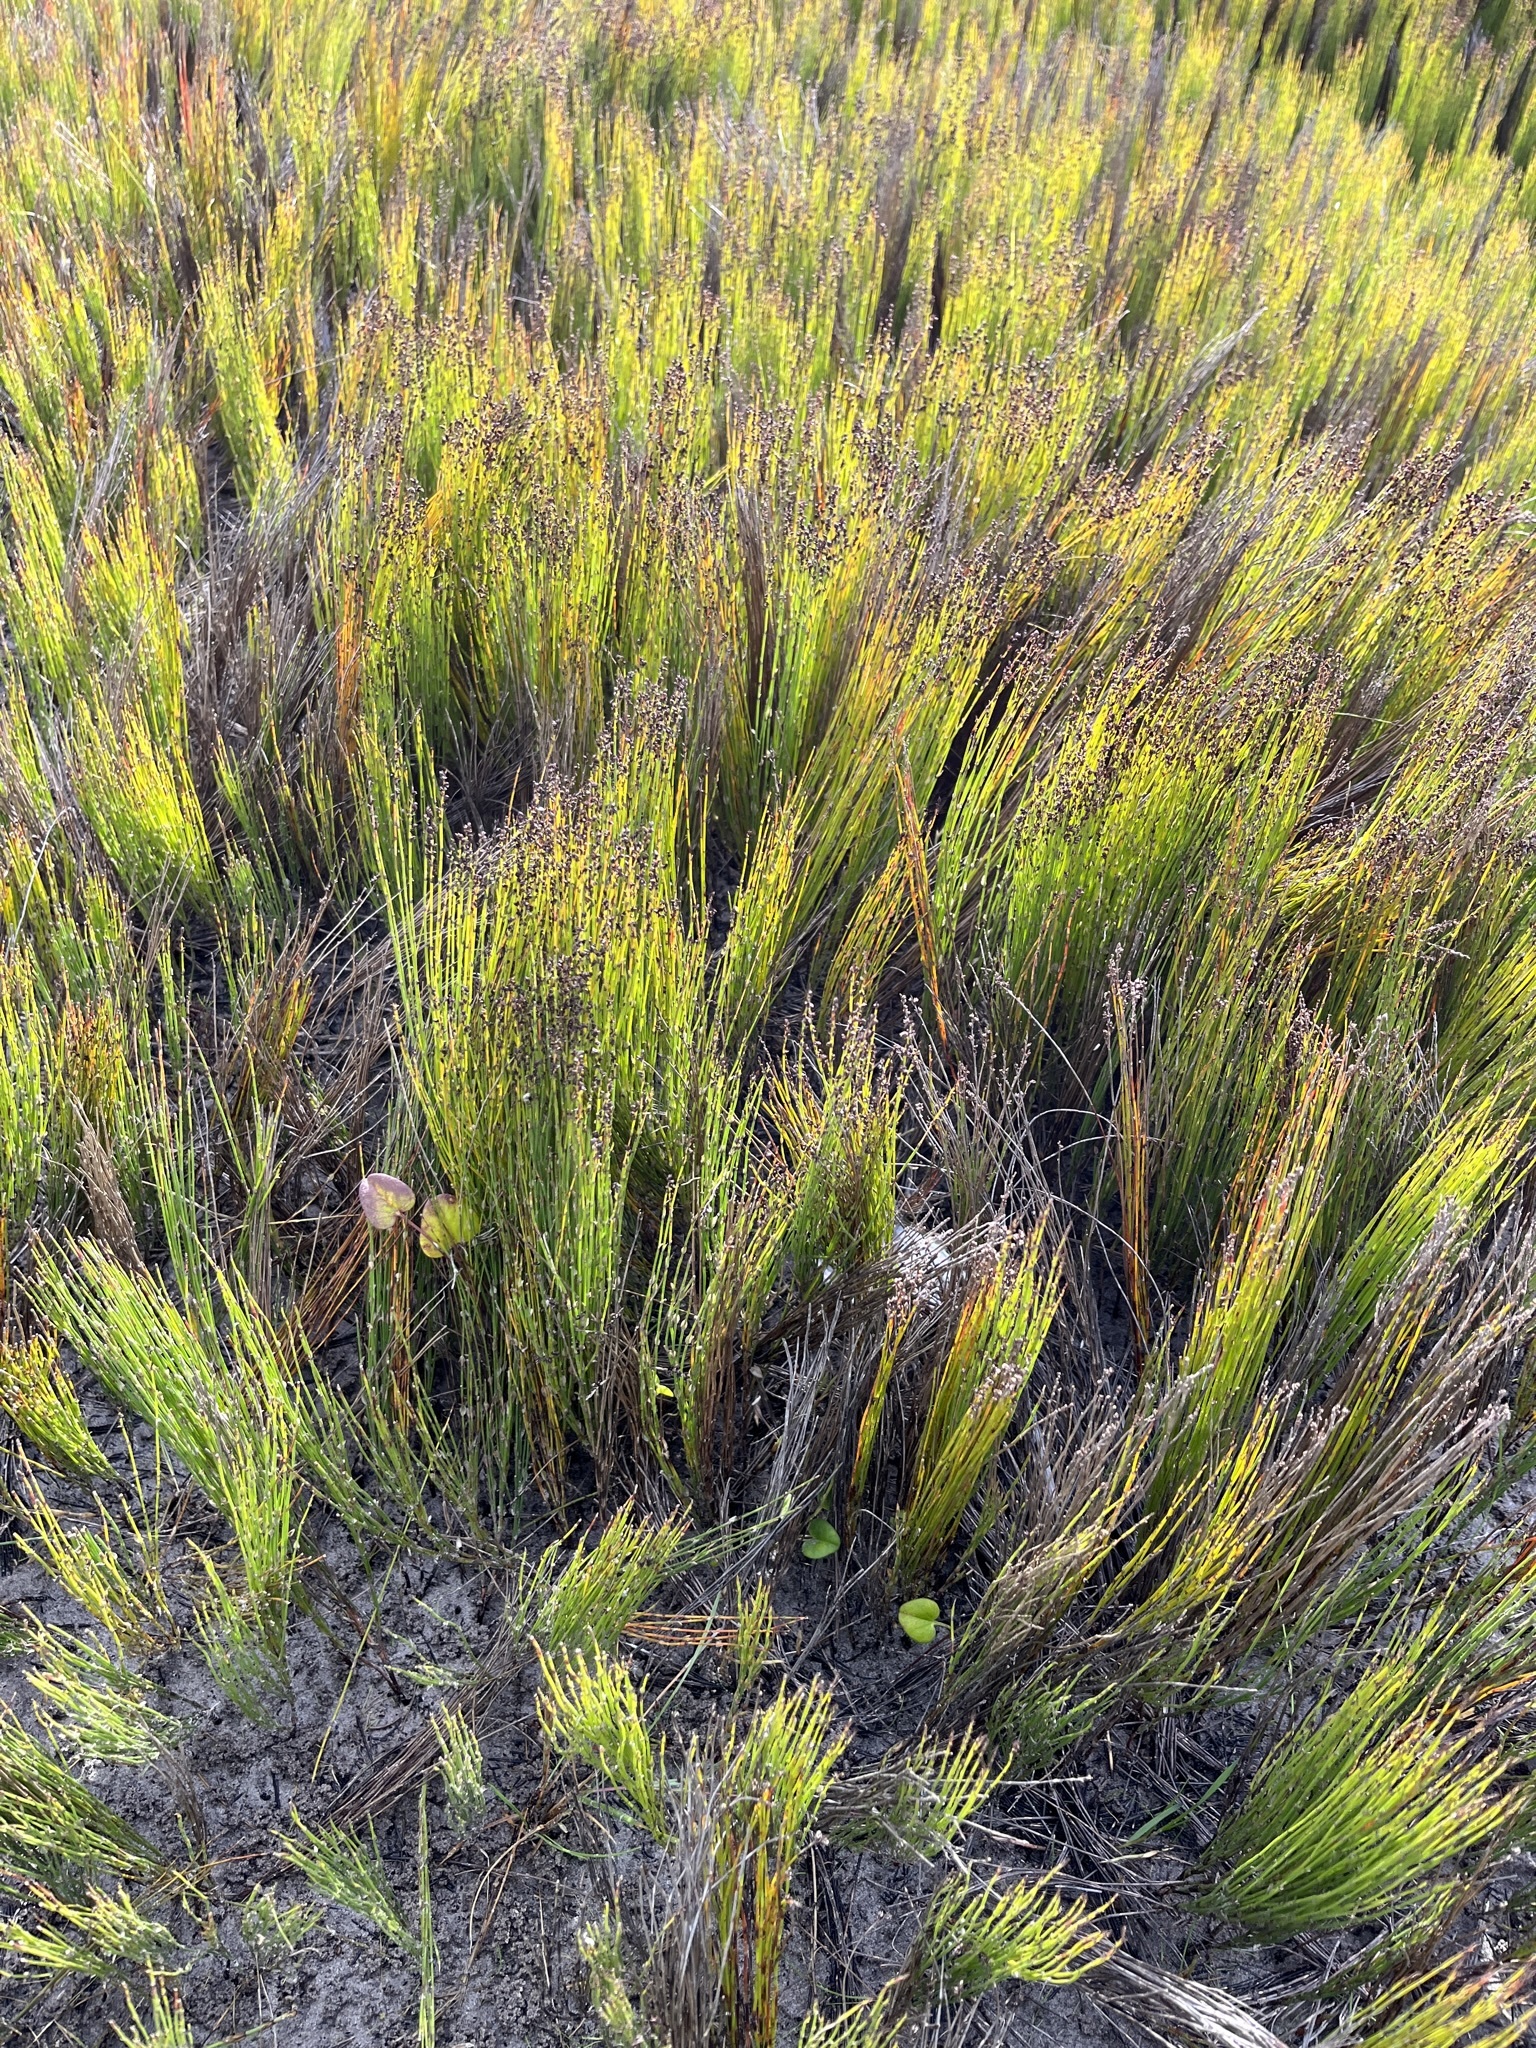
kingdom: Plantae
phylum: Tracheophyta
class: Liliopsida
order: Poales
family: Restionaceae
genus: Elegia
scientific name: Elegia microcarpa
